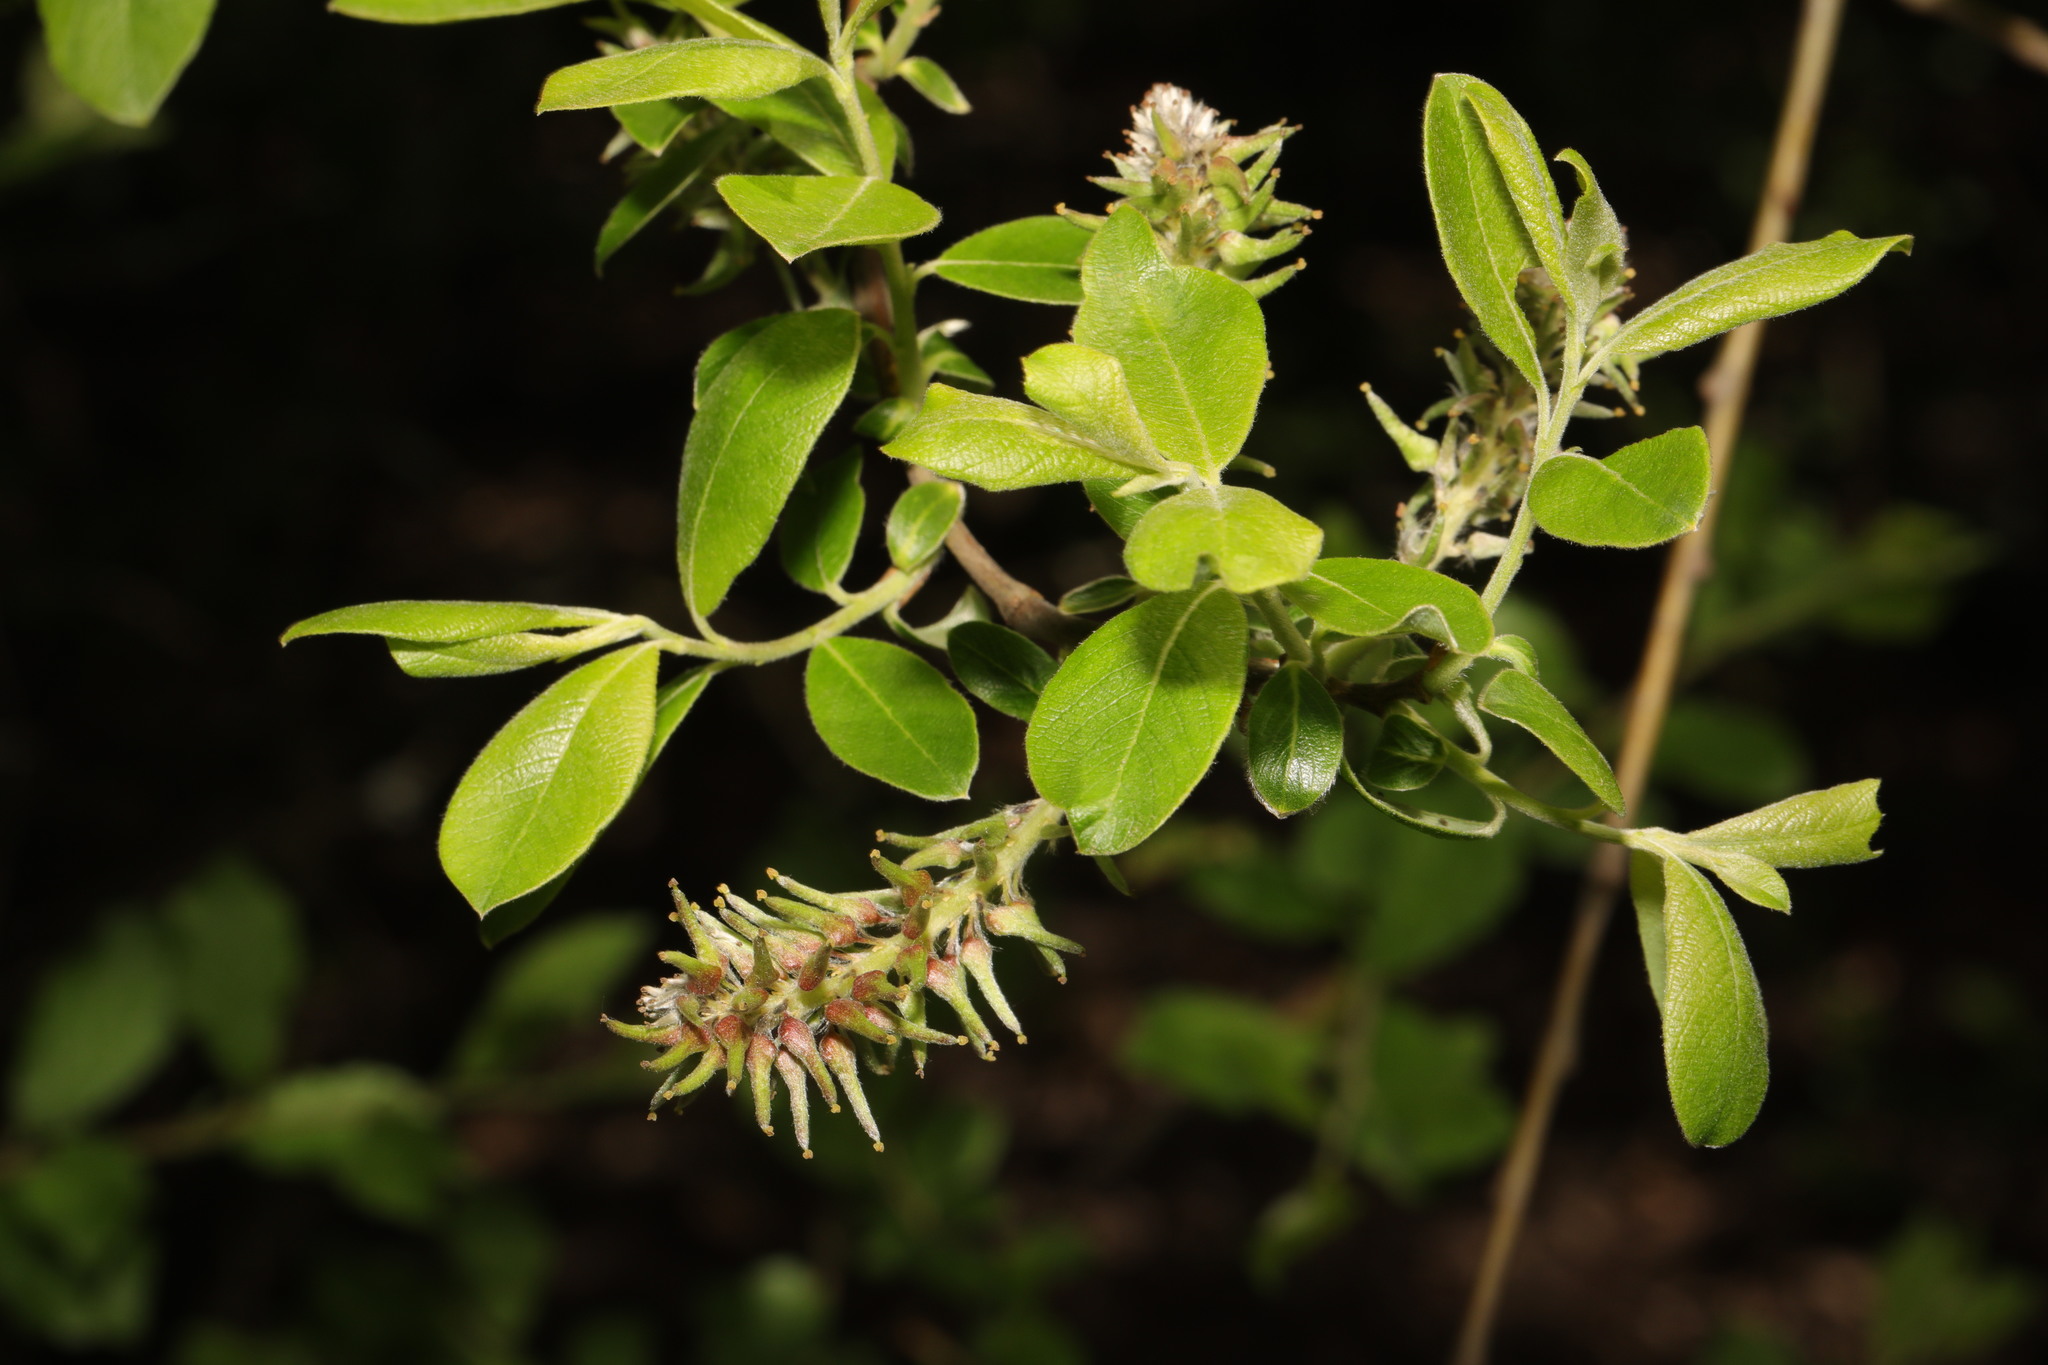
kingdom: Plantae
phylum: Tracheophyta
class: Magnoliopsida
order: Malpighiales
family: Salicaceae
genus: Salix
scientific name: Salix cinerea
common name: Common sallow
